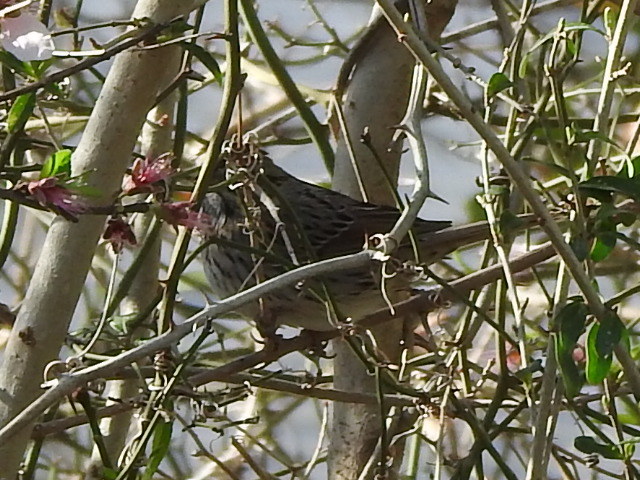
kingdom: Animalia
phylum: Chordata
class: Aves
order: Passeriformes
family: Passerellidae
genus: Melospiza
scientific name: Melospiza lincolnii
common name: Lincoln's sparrow
